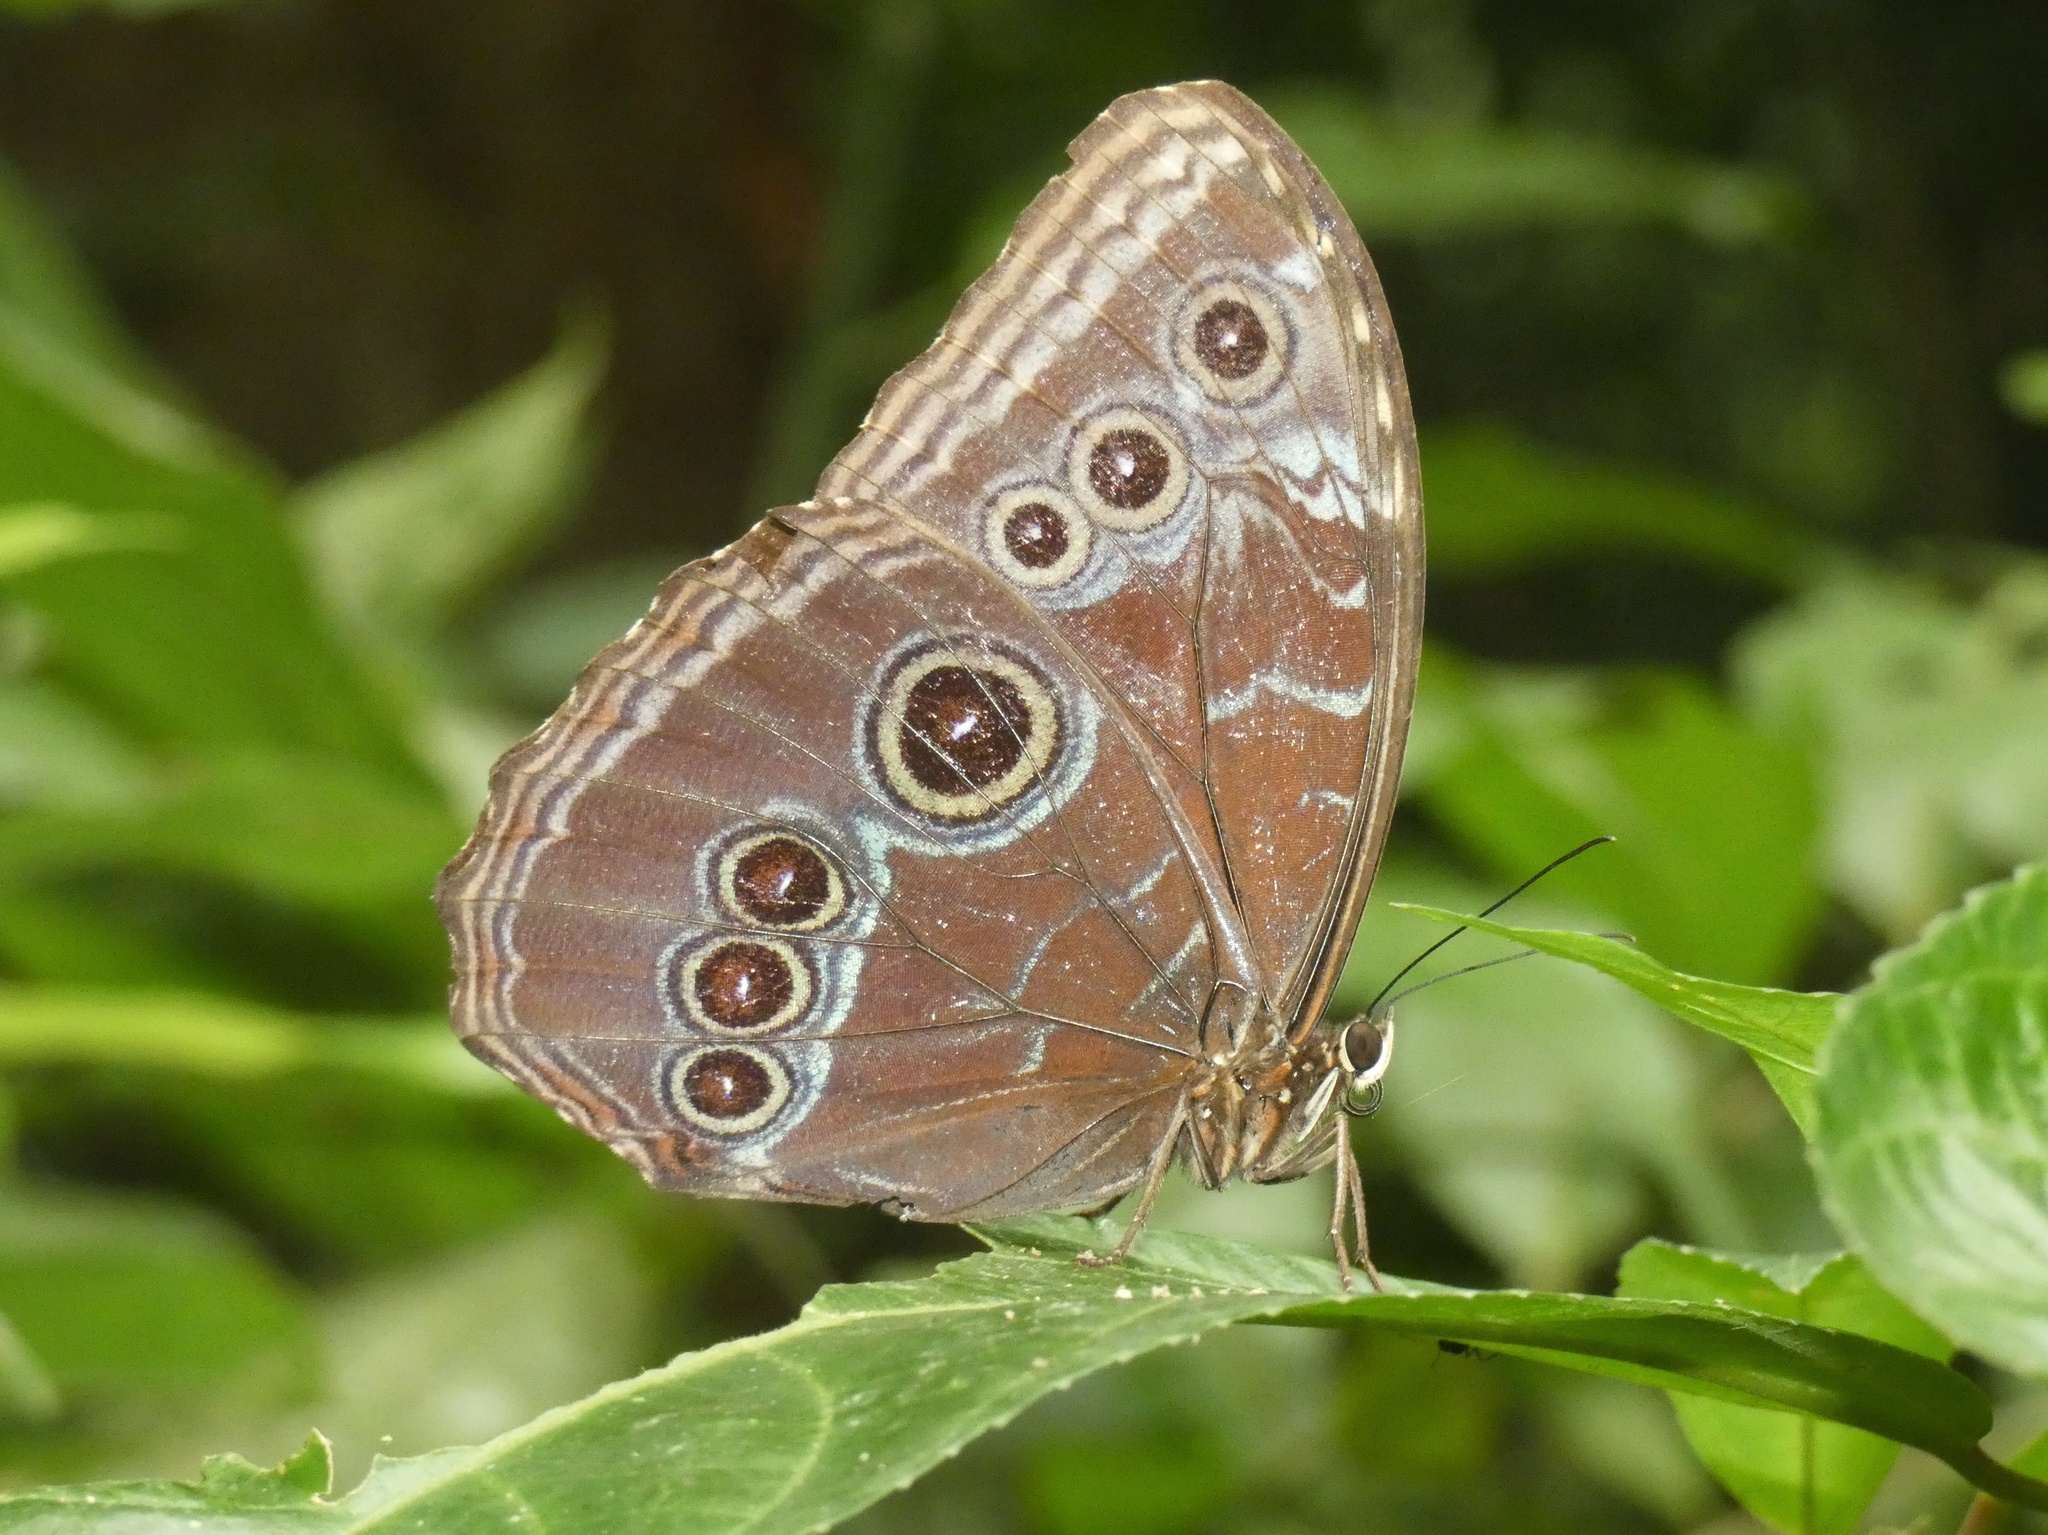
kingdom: Animalia
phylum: Arthropoda
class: Insecta
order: Lepidoptera
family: Nymphalidae
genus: Morpho
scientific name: Morpho helenor
